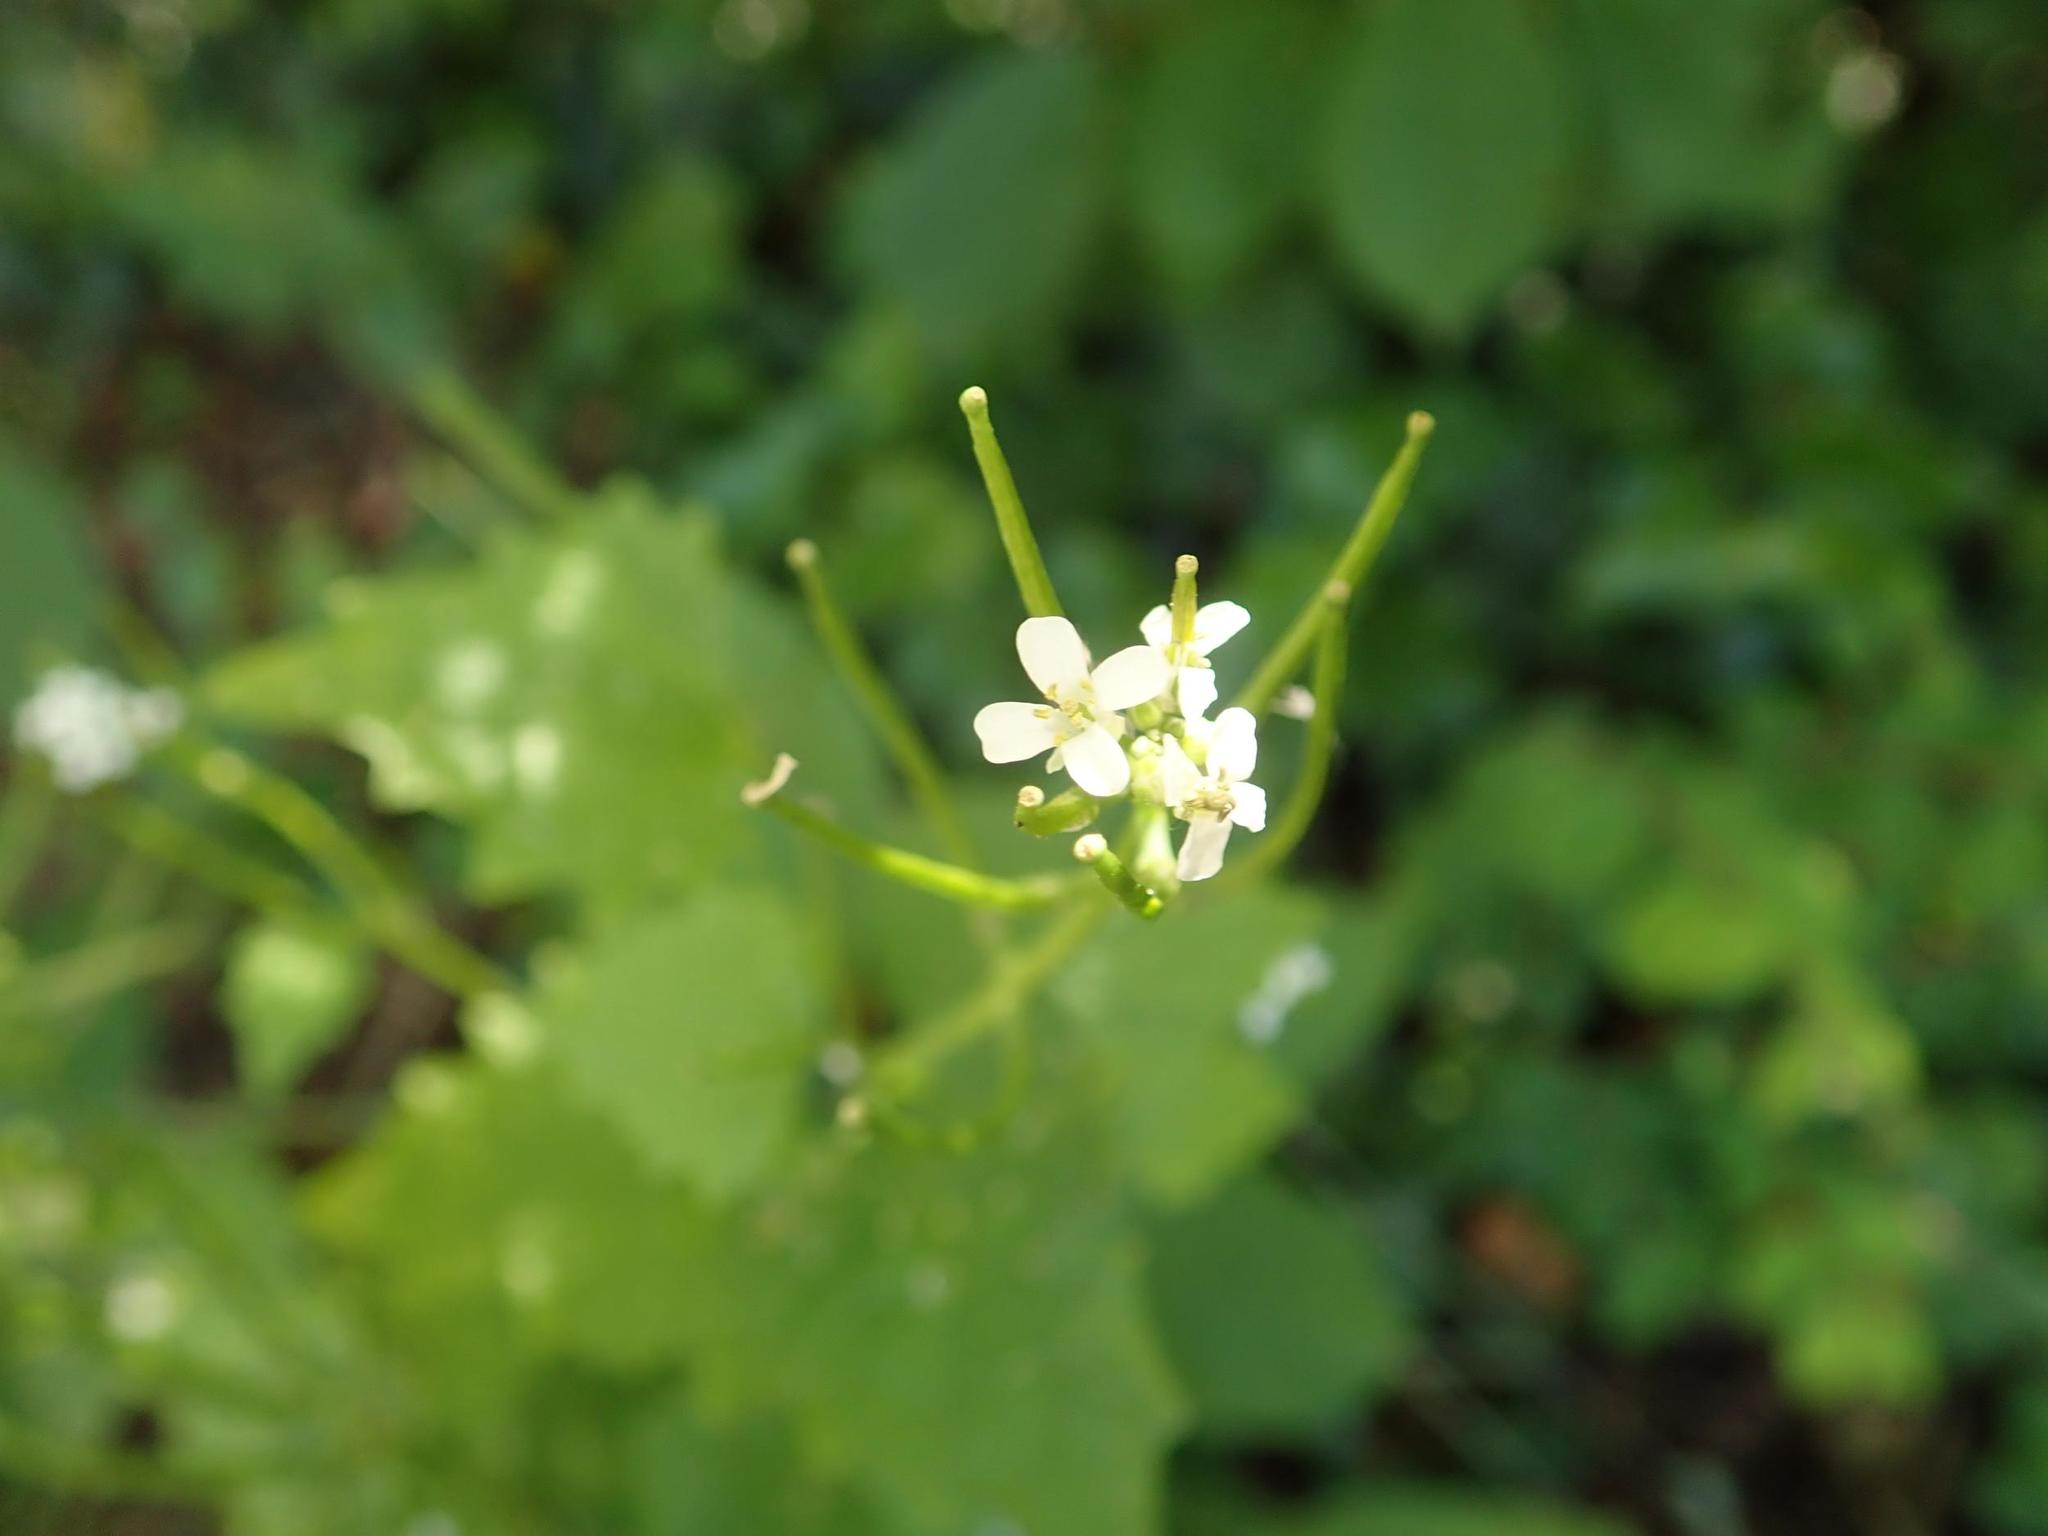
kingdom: Plantae
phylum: Tracheophyta
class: Magnoliopsida
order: Brassicales
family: Brassicaceae
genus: Alliaria
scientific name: Alliaria petiolata
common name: Garlic mustard
